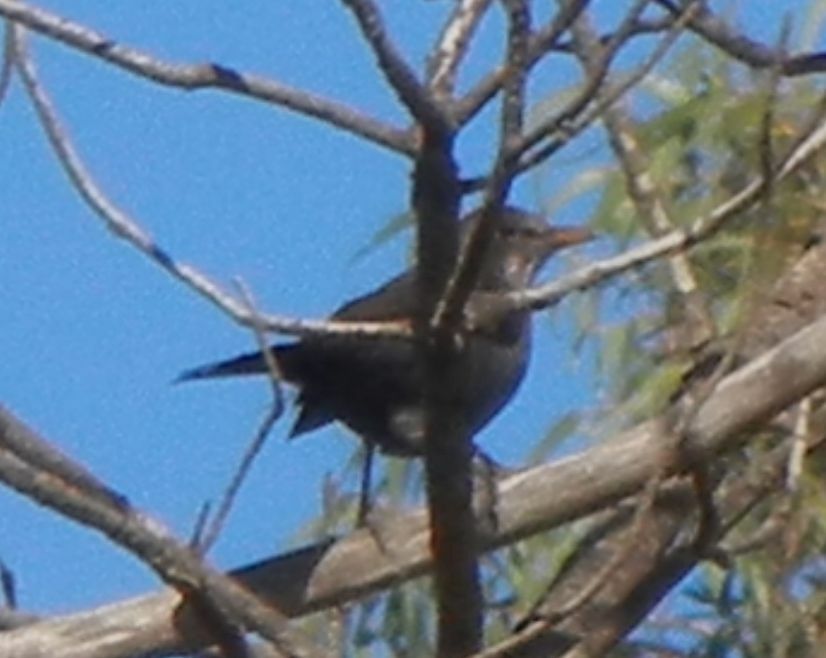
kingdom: Animalia
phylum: Chordata
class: Aves
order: Passeriformes
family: Turdidae
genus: Turdus
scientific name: Turdus merula
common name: Common blackbird
